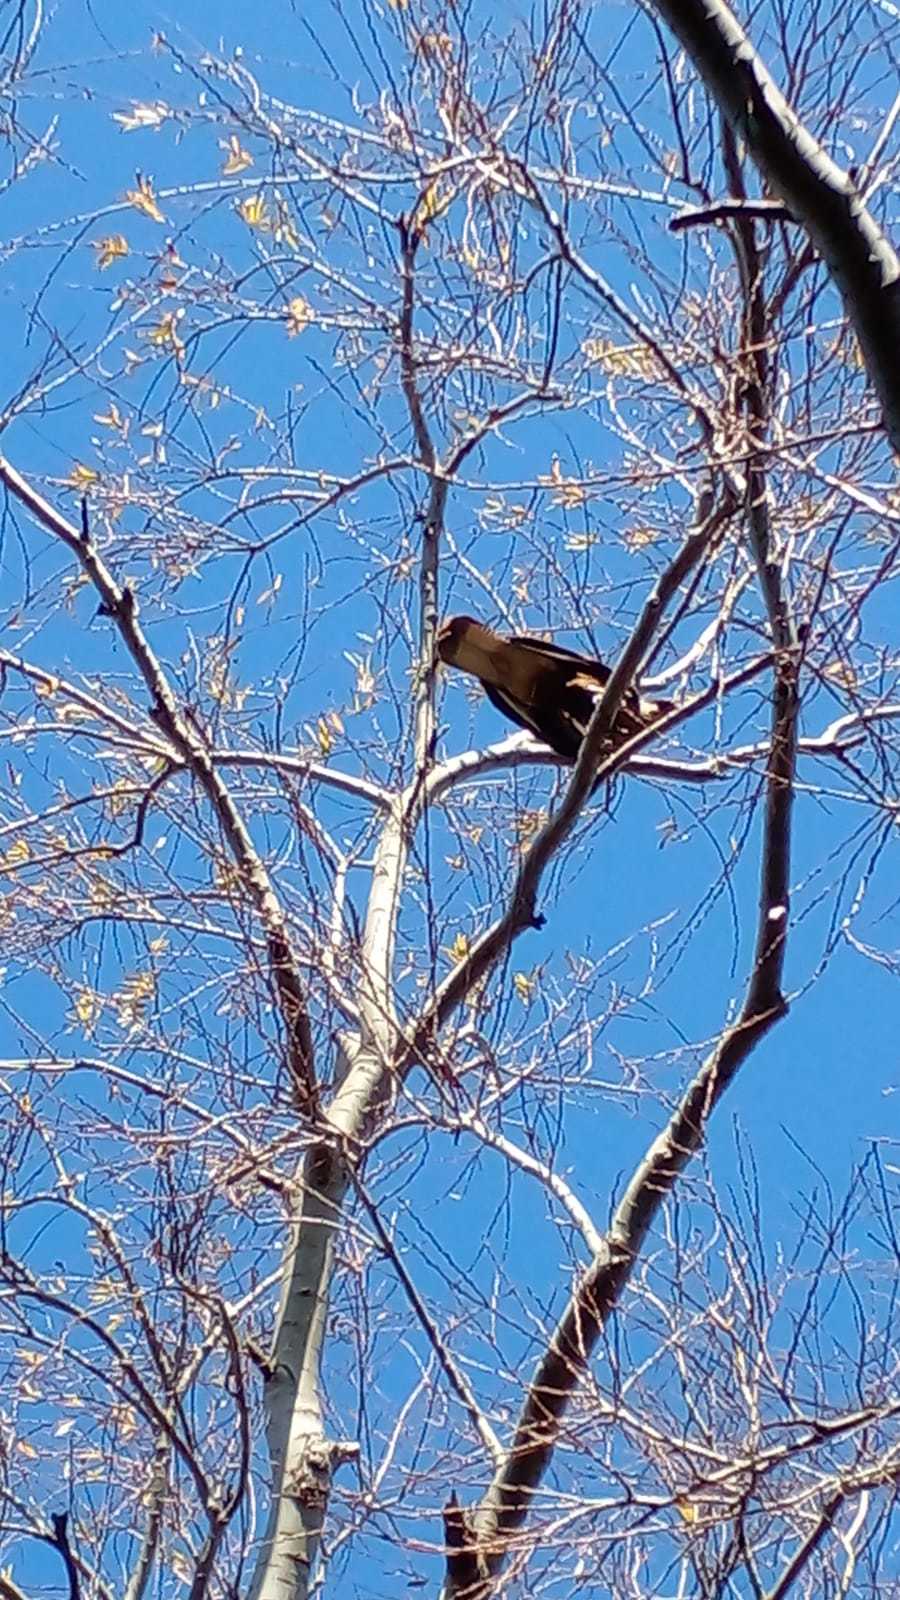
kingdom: Animalia
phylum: Chordata
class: Aves
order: Falconiformes
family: Falconidae
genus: Caracara
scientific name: Caracara plancus
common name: Southern caracara
